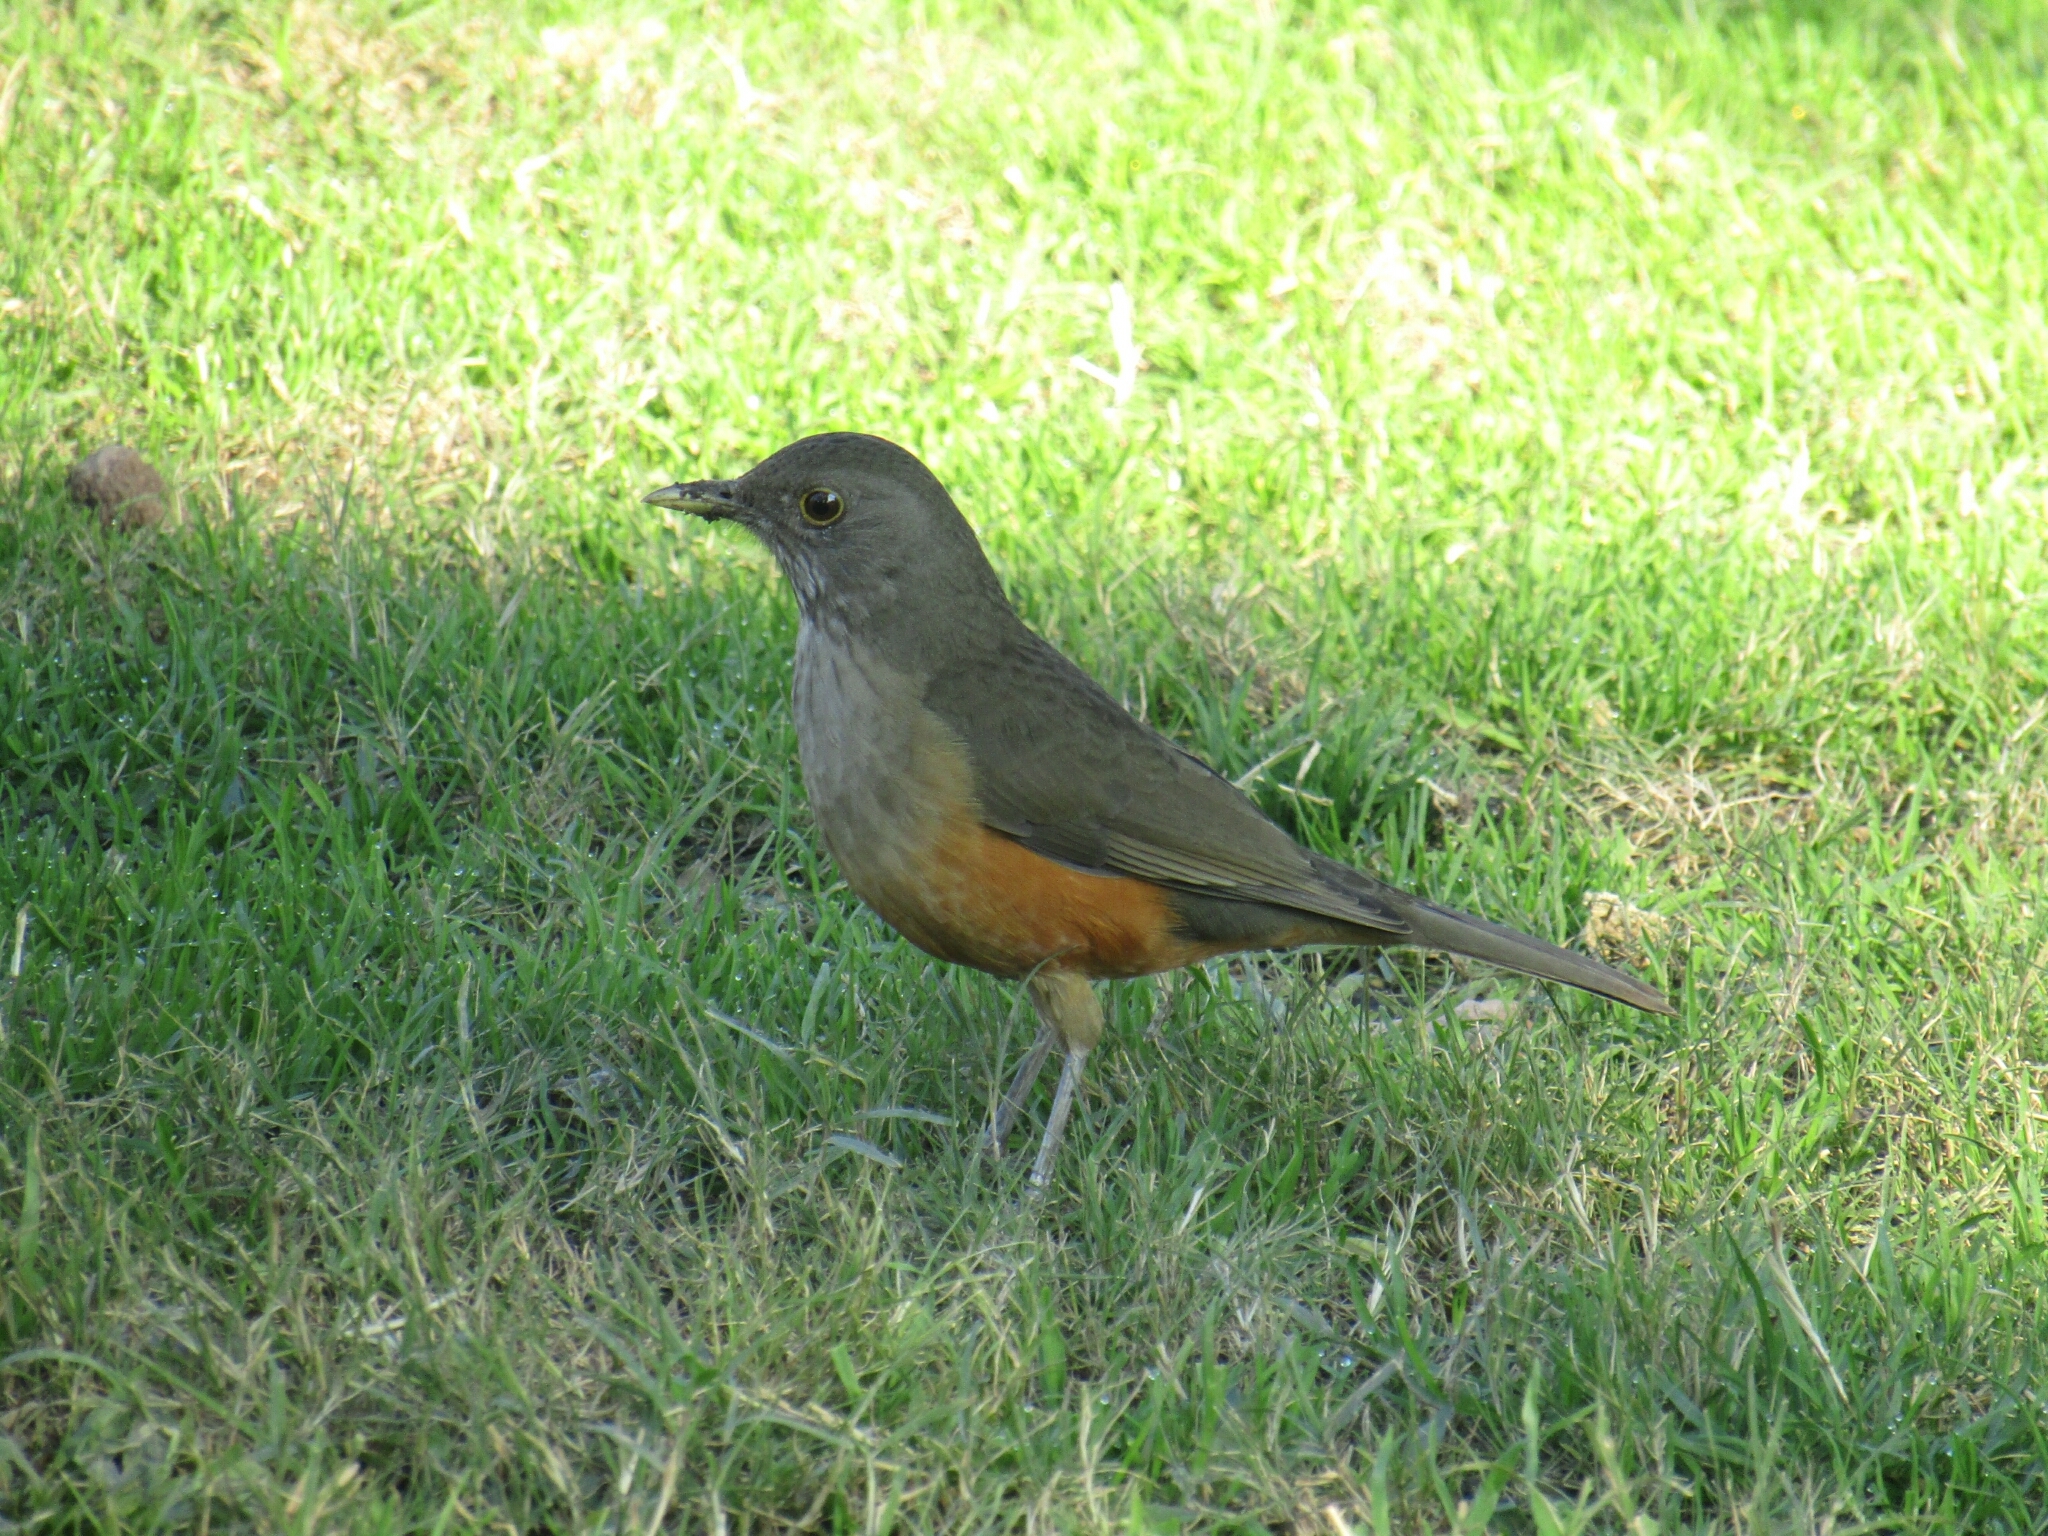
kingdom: Animalia
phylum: Chordata
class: Aves
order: Passeriformes
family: Turdidae
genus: Turdus
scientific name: Turdus rufiventris
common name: Rufous-bellied thrush
